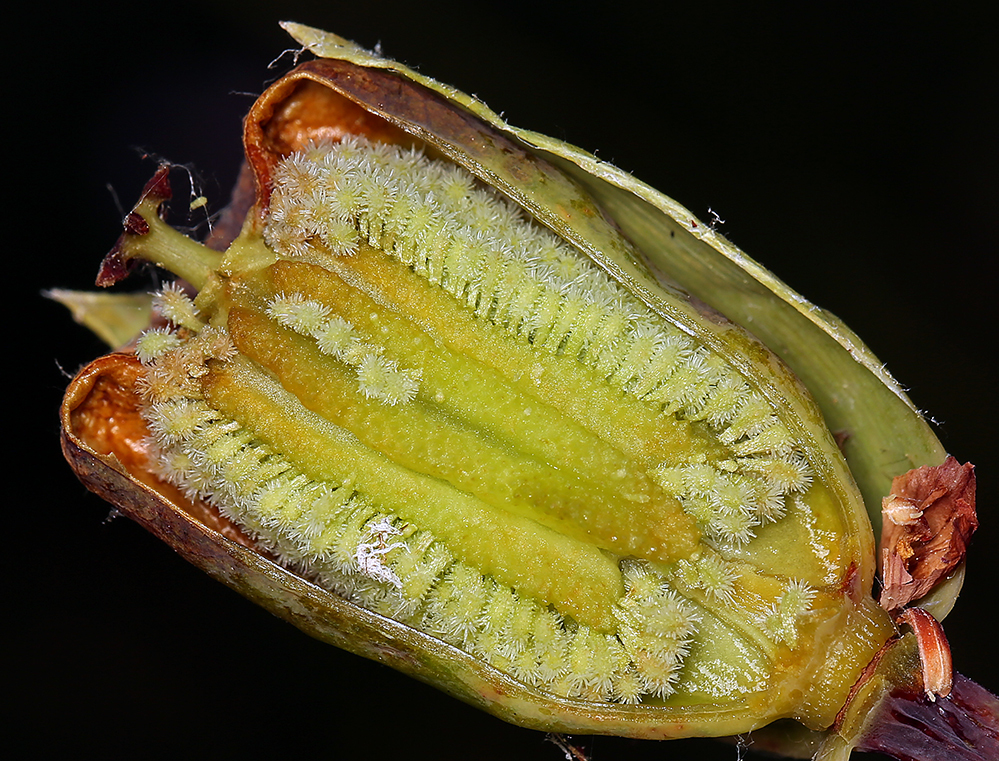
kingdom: Plantae
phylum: Tracheophyta
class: Magnoliopsida
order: Ericales
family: Sarraceniaceae
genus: Darlingtonia
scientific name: Darlingtonia californica
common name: California pitcher plant
